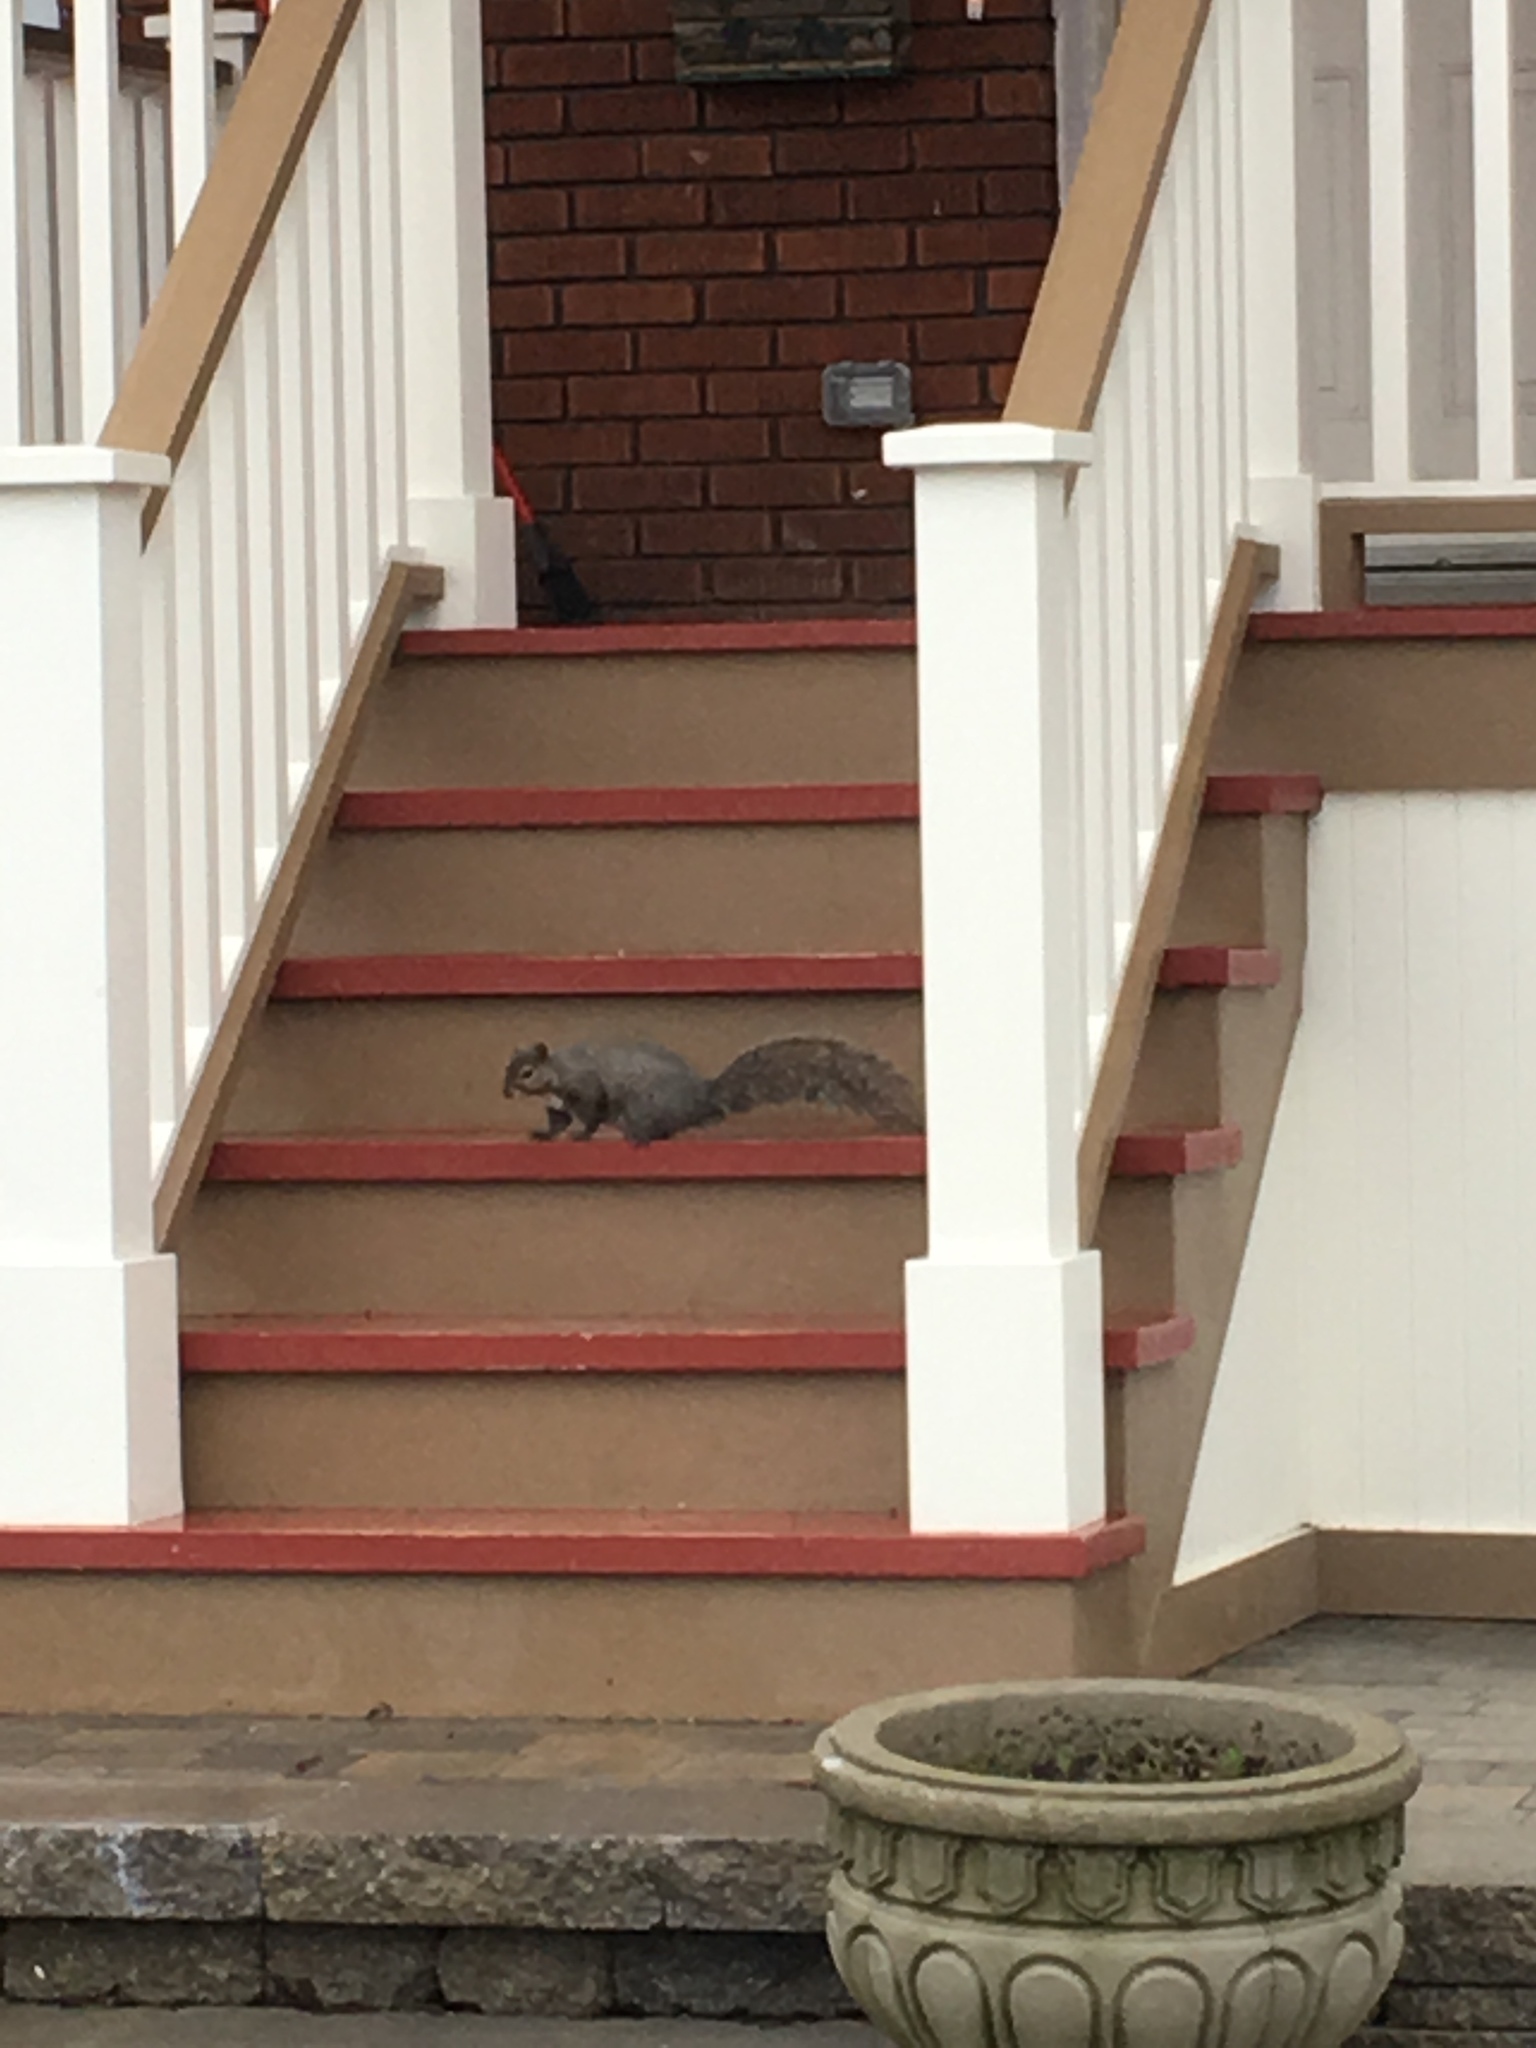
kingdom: Animalia
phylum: Chordata
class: Mammalia
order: Rodentia
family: Sciuridae
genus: Sciurus
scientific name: Sciurus carolinensis
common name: Eastern gray squirrel
